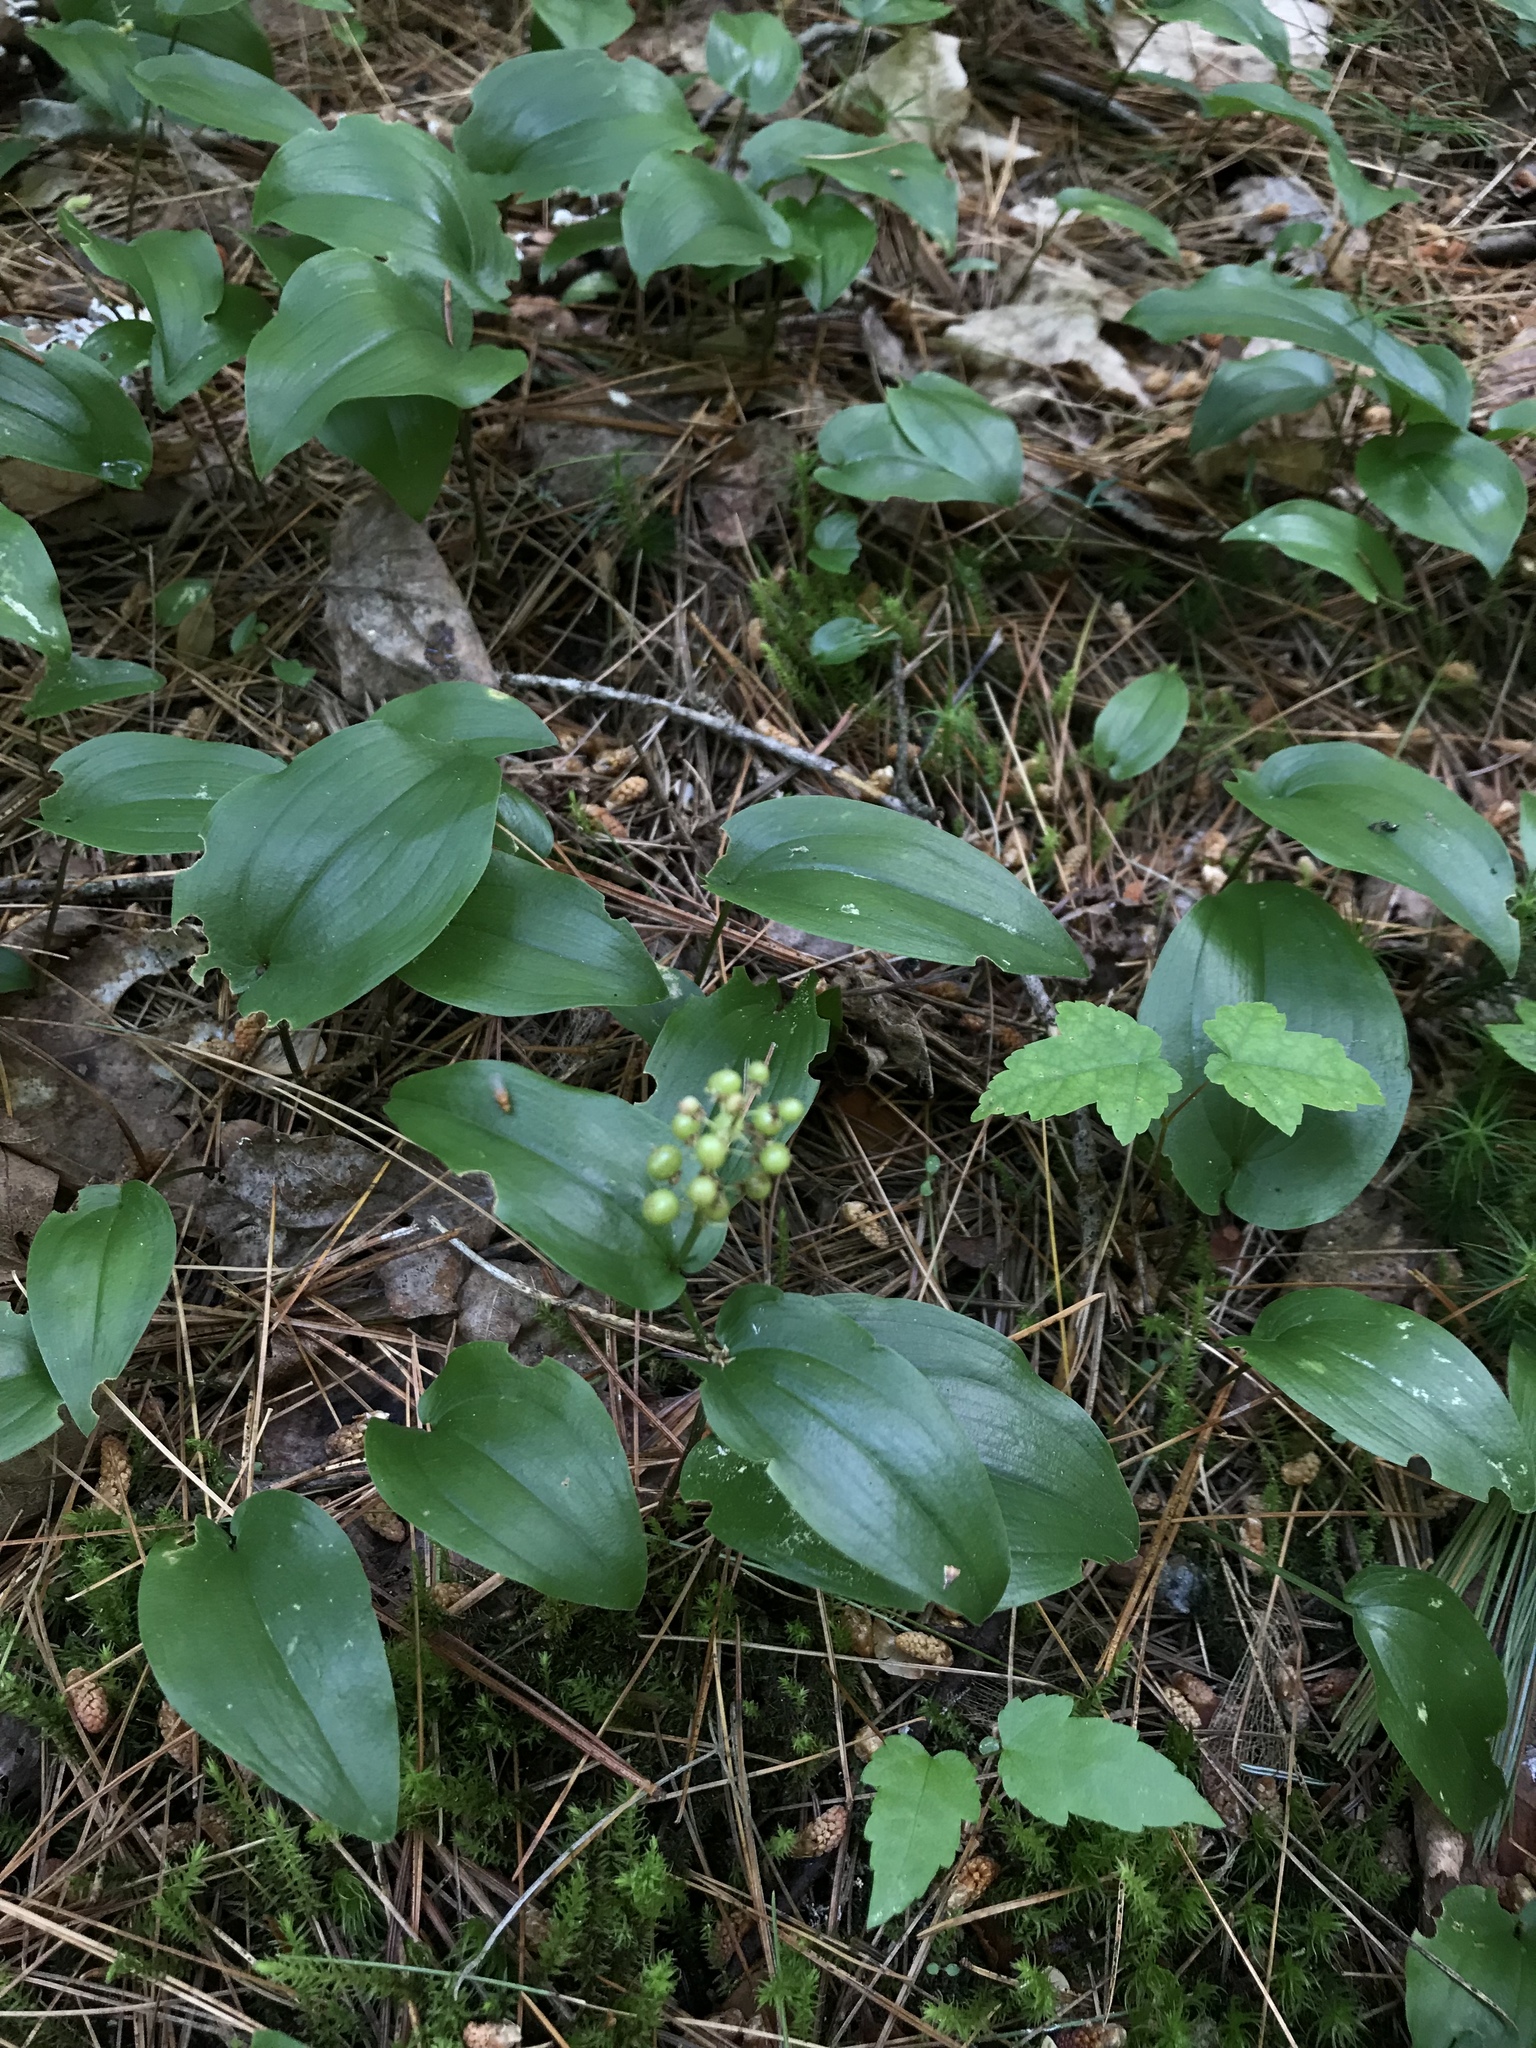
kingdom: Plantae
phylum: Tracheophyta
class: Liliopsida
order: Asparagales
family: Asparagaceae
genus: Maianthemum
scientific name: Maianthemum canadense
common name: False lily-of-the-valley
